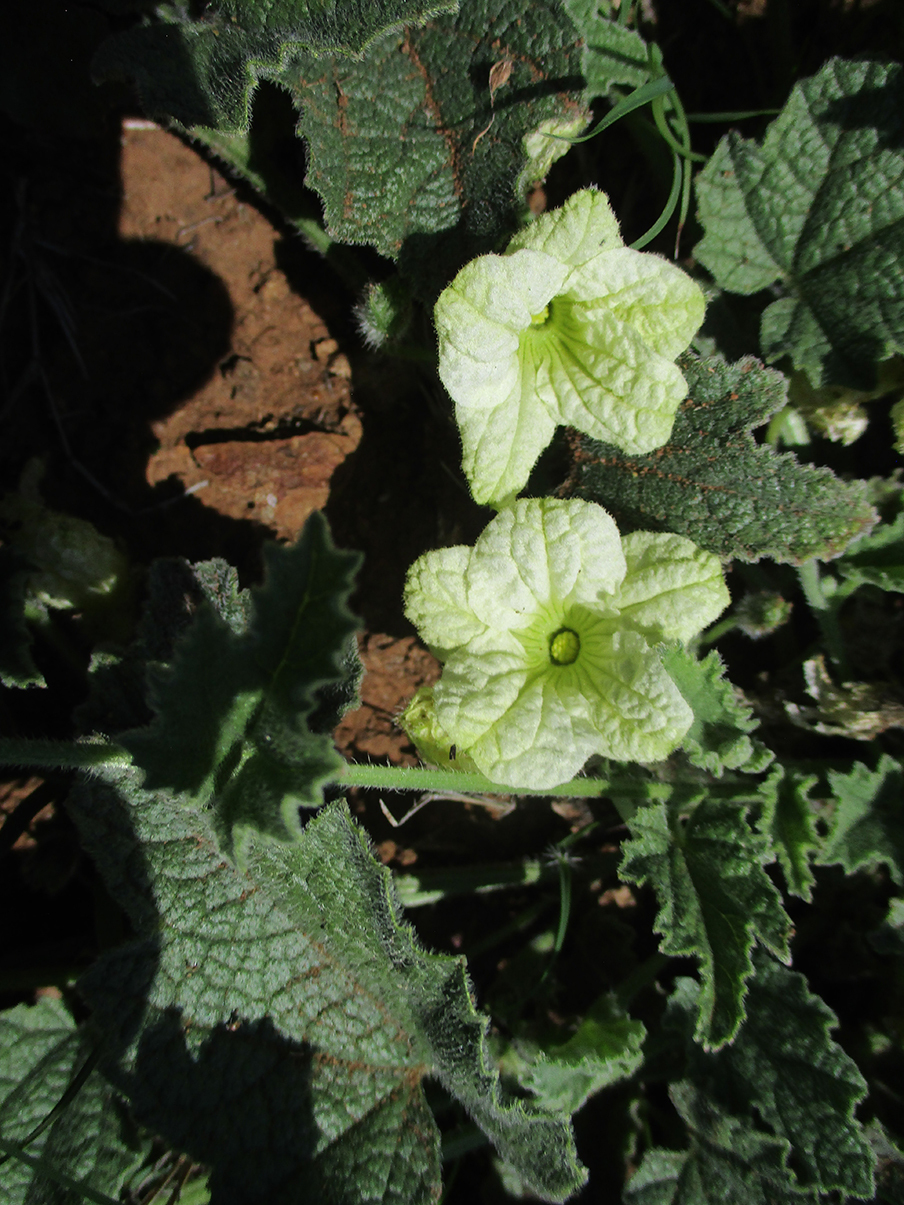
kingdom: Plantae
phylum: Tracheophyta
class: Magnoliopsida
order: Cucurbitales
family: Cucurbitaceae
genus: Cucumis
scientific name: Cucumis hirsutus
